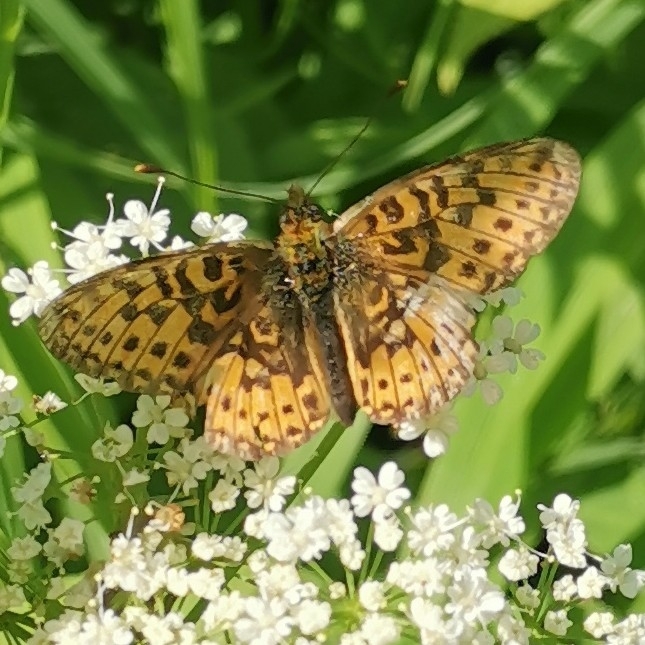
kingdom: Animalia
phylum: Arthropoda
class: Insecta
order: Lepidoptera
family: Nymphalidae
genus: Clossiana
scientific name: Clossiana euphrosyne
